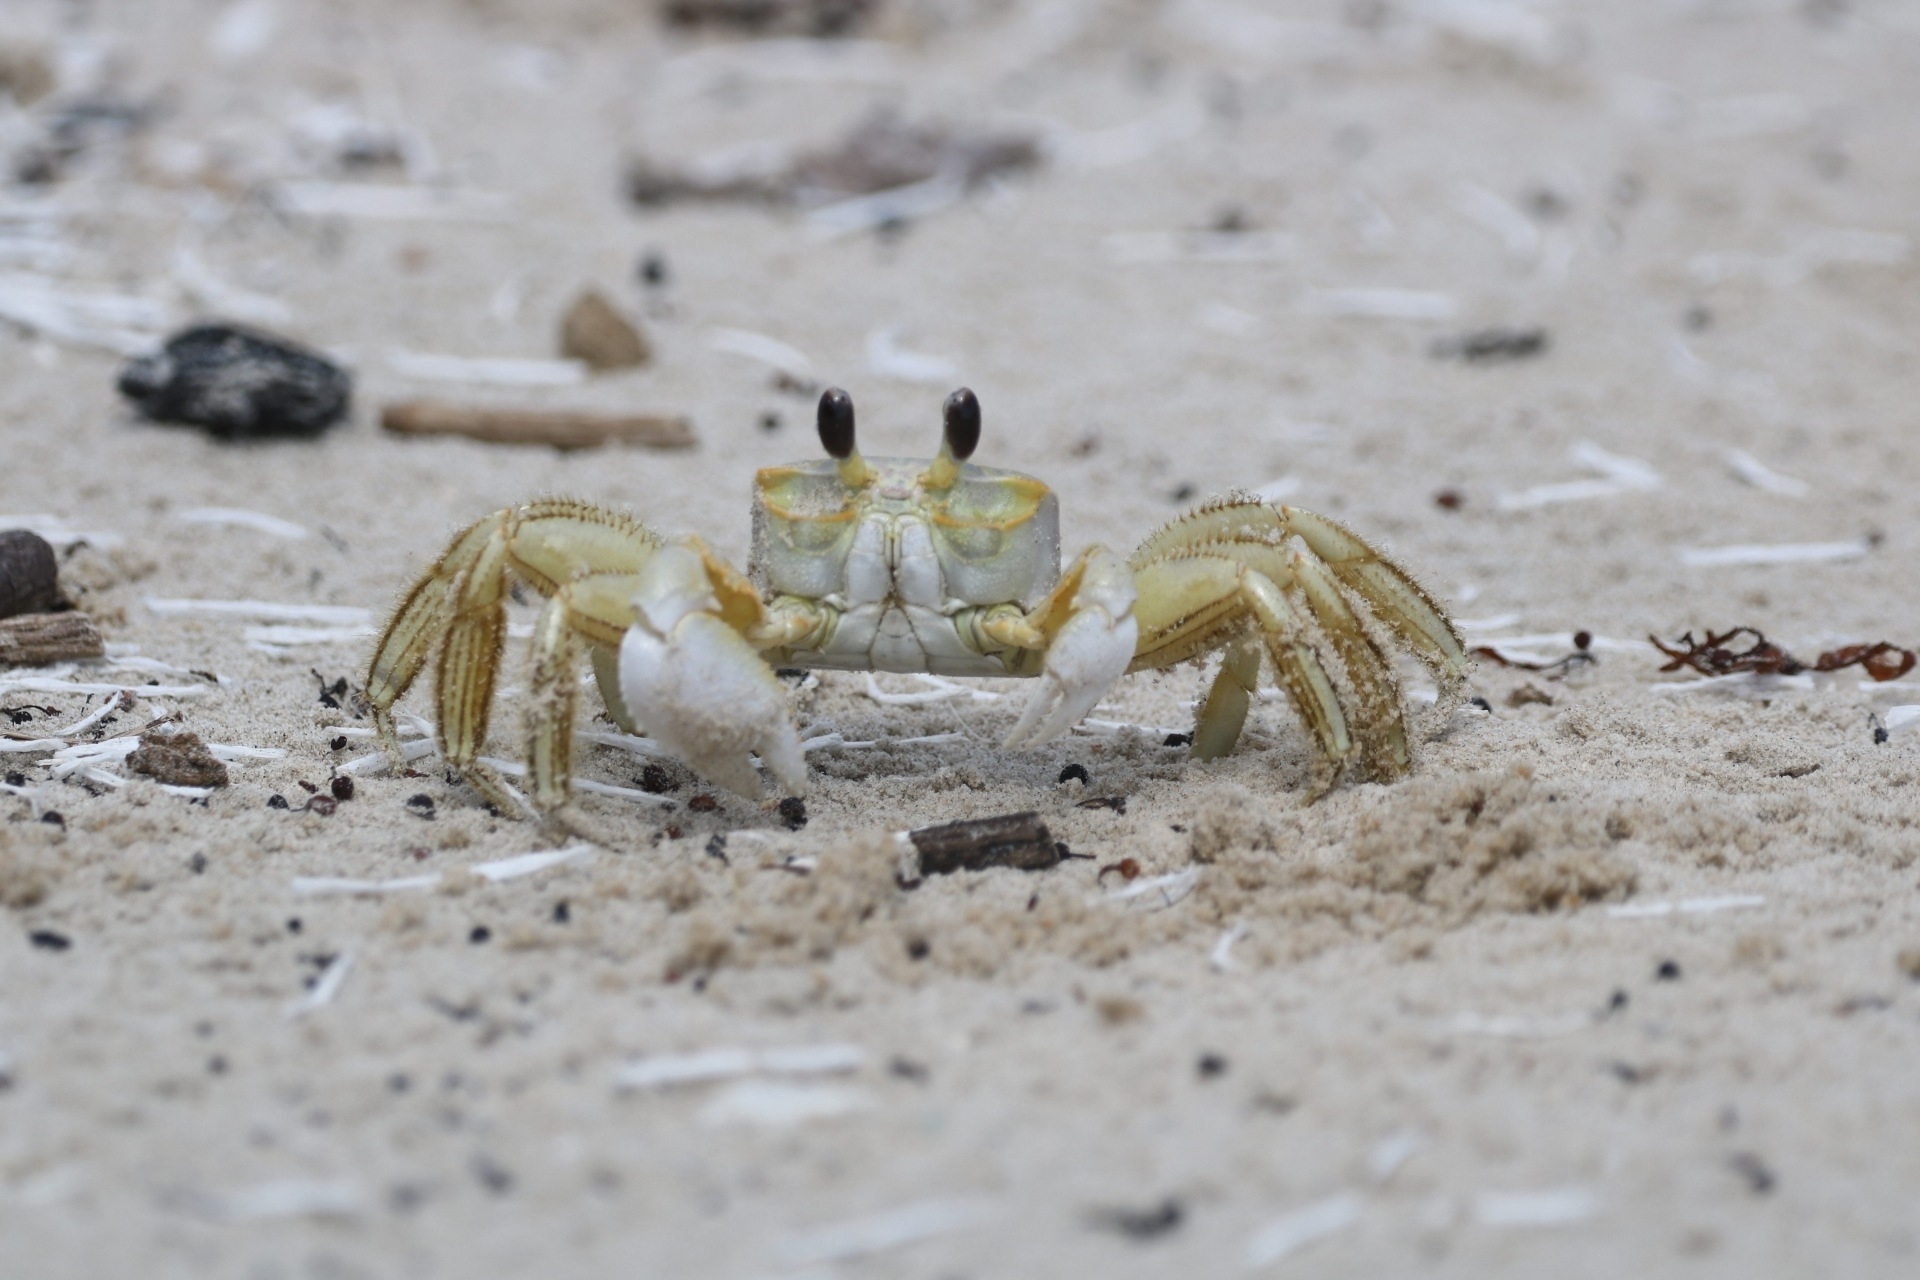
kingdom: Animalia
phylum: Arthropoda
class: Malacostraca
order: Decapoda
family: Ocypodidae
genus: Ocypode
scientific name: Ocypode quadrata
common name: Ghost crab
